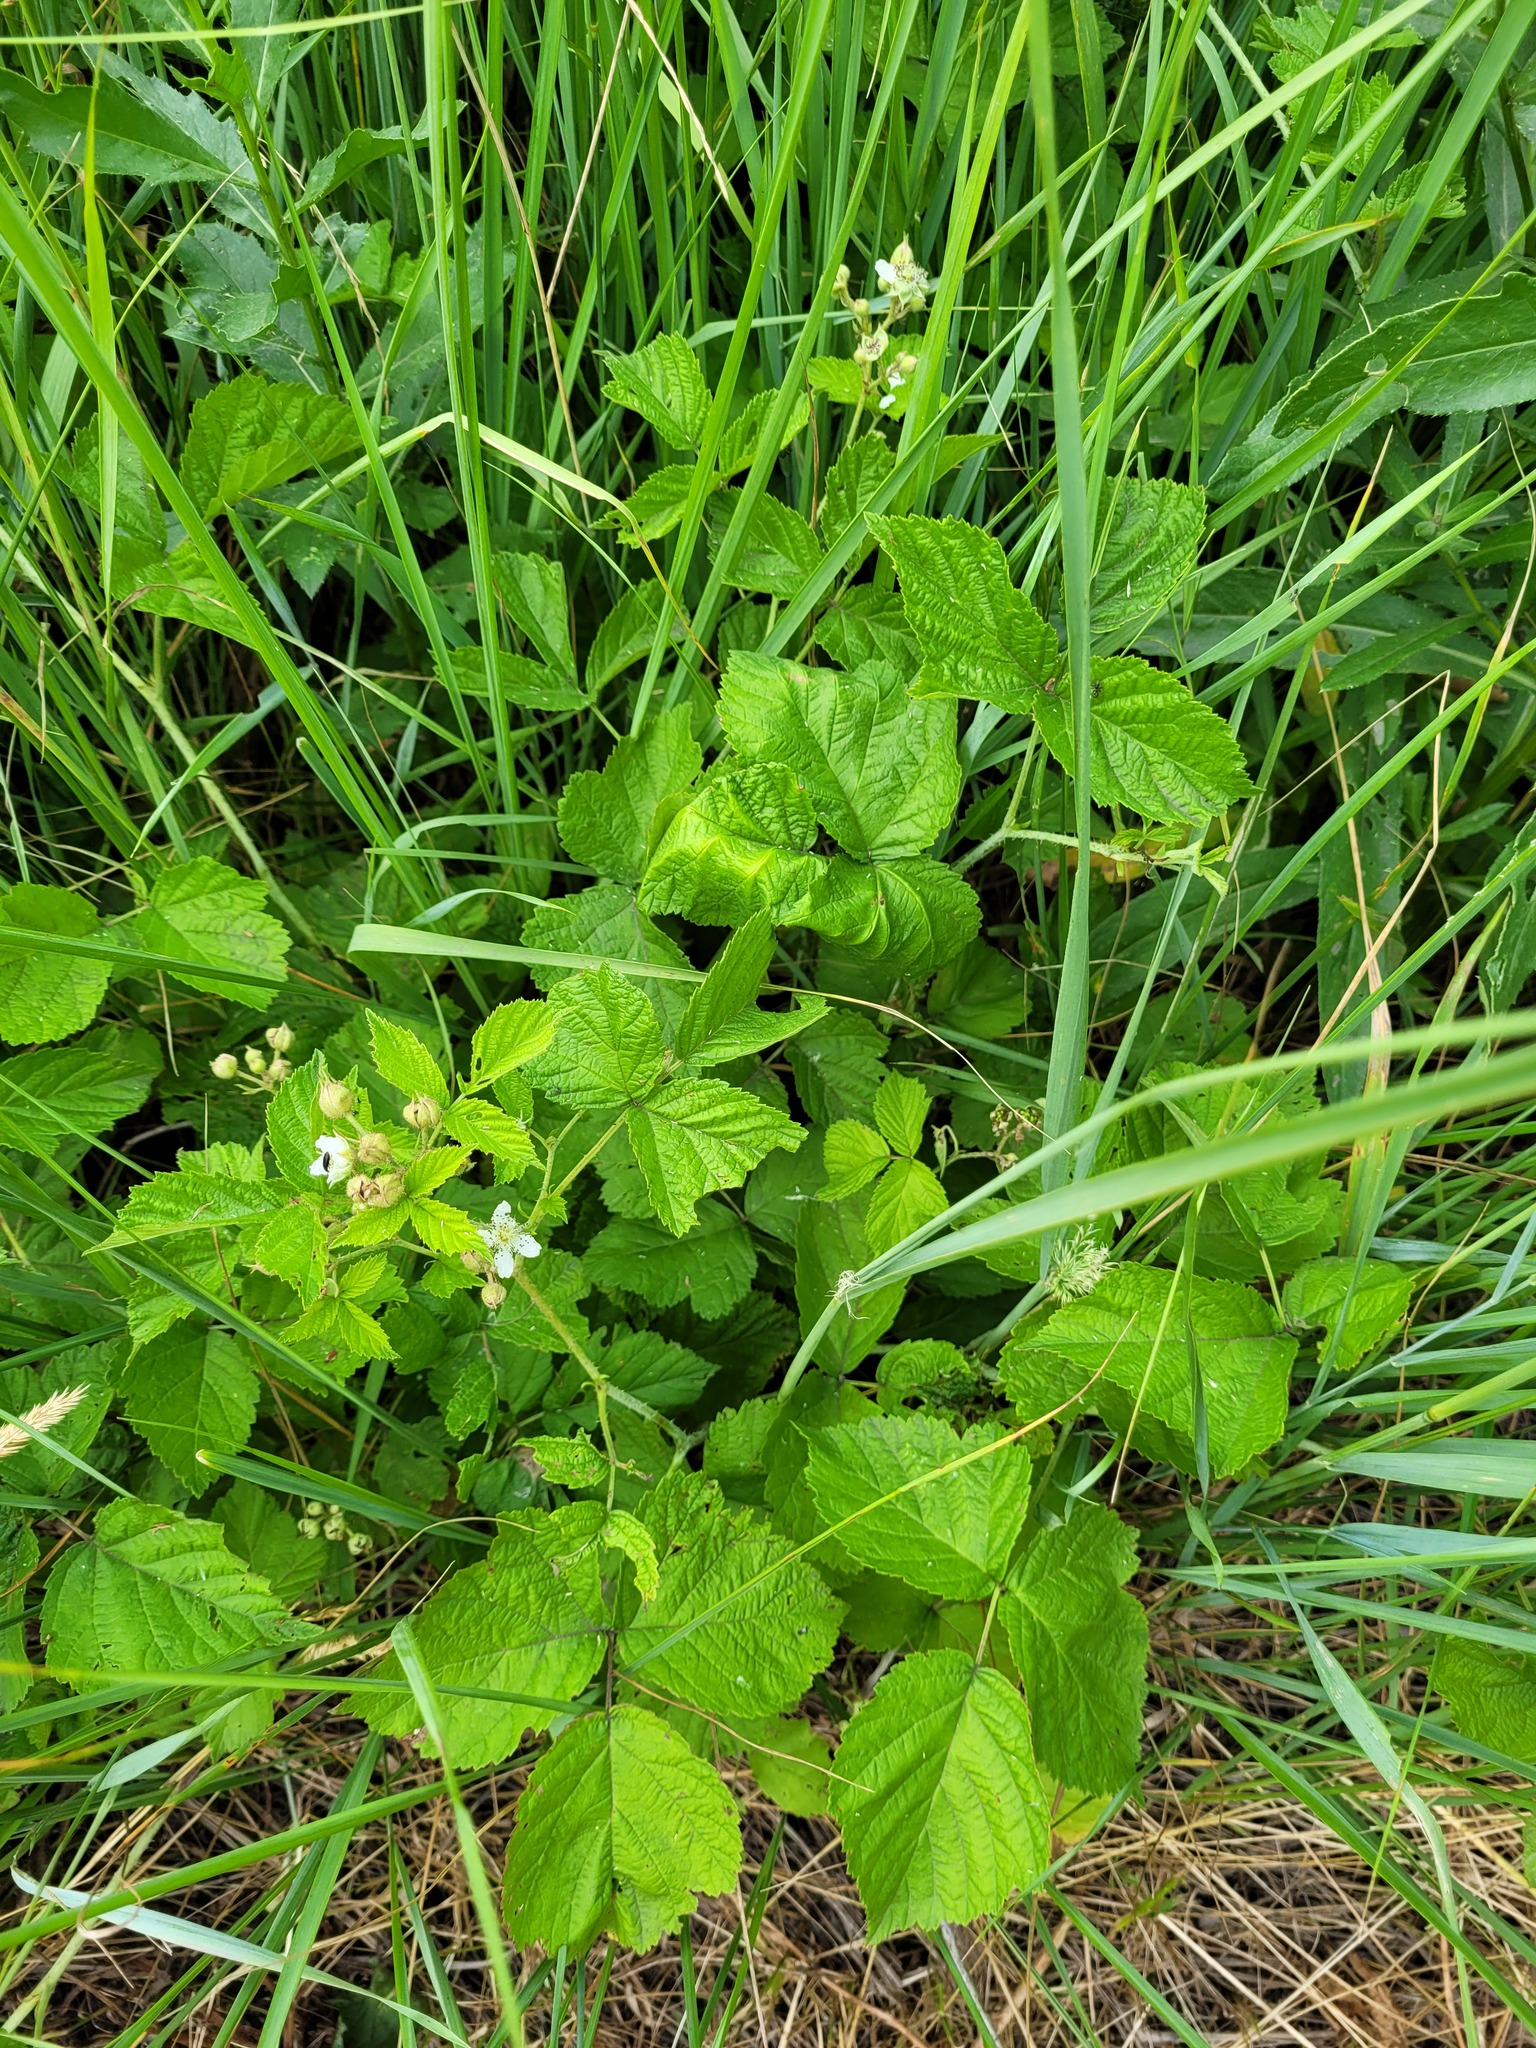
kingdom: Plantae
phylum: Tracheophyta
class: Magnoliopsida
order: Rosales
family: Rosaceae
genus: Rubus
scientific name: Rubus caesius
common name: Dewberry
